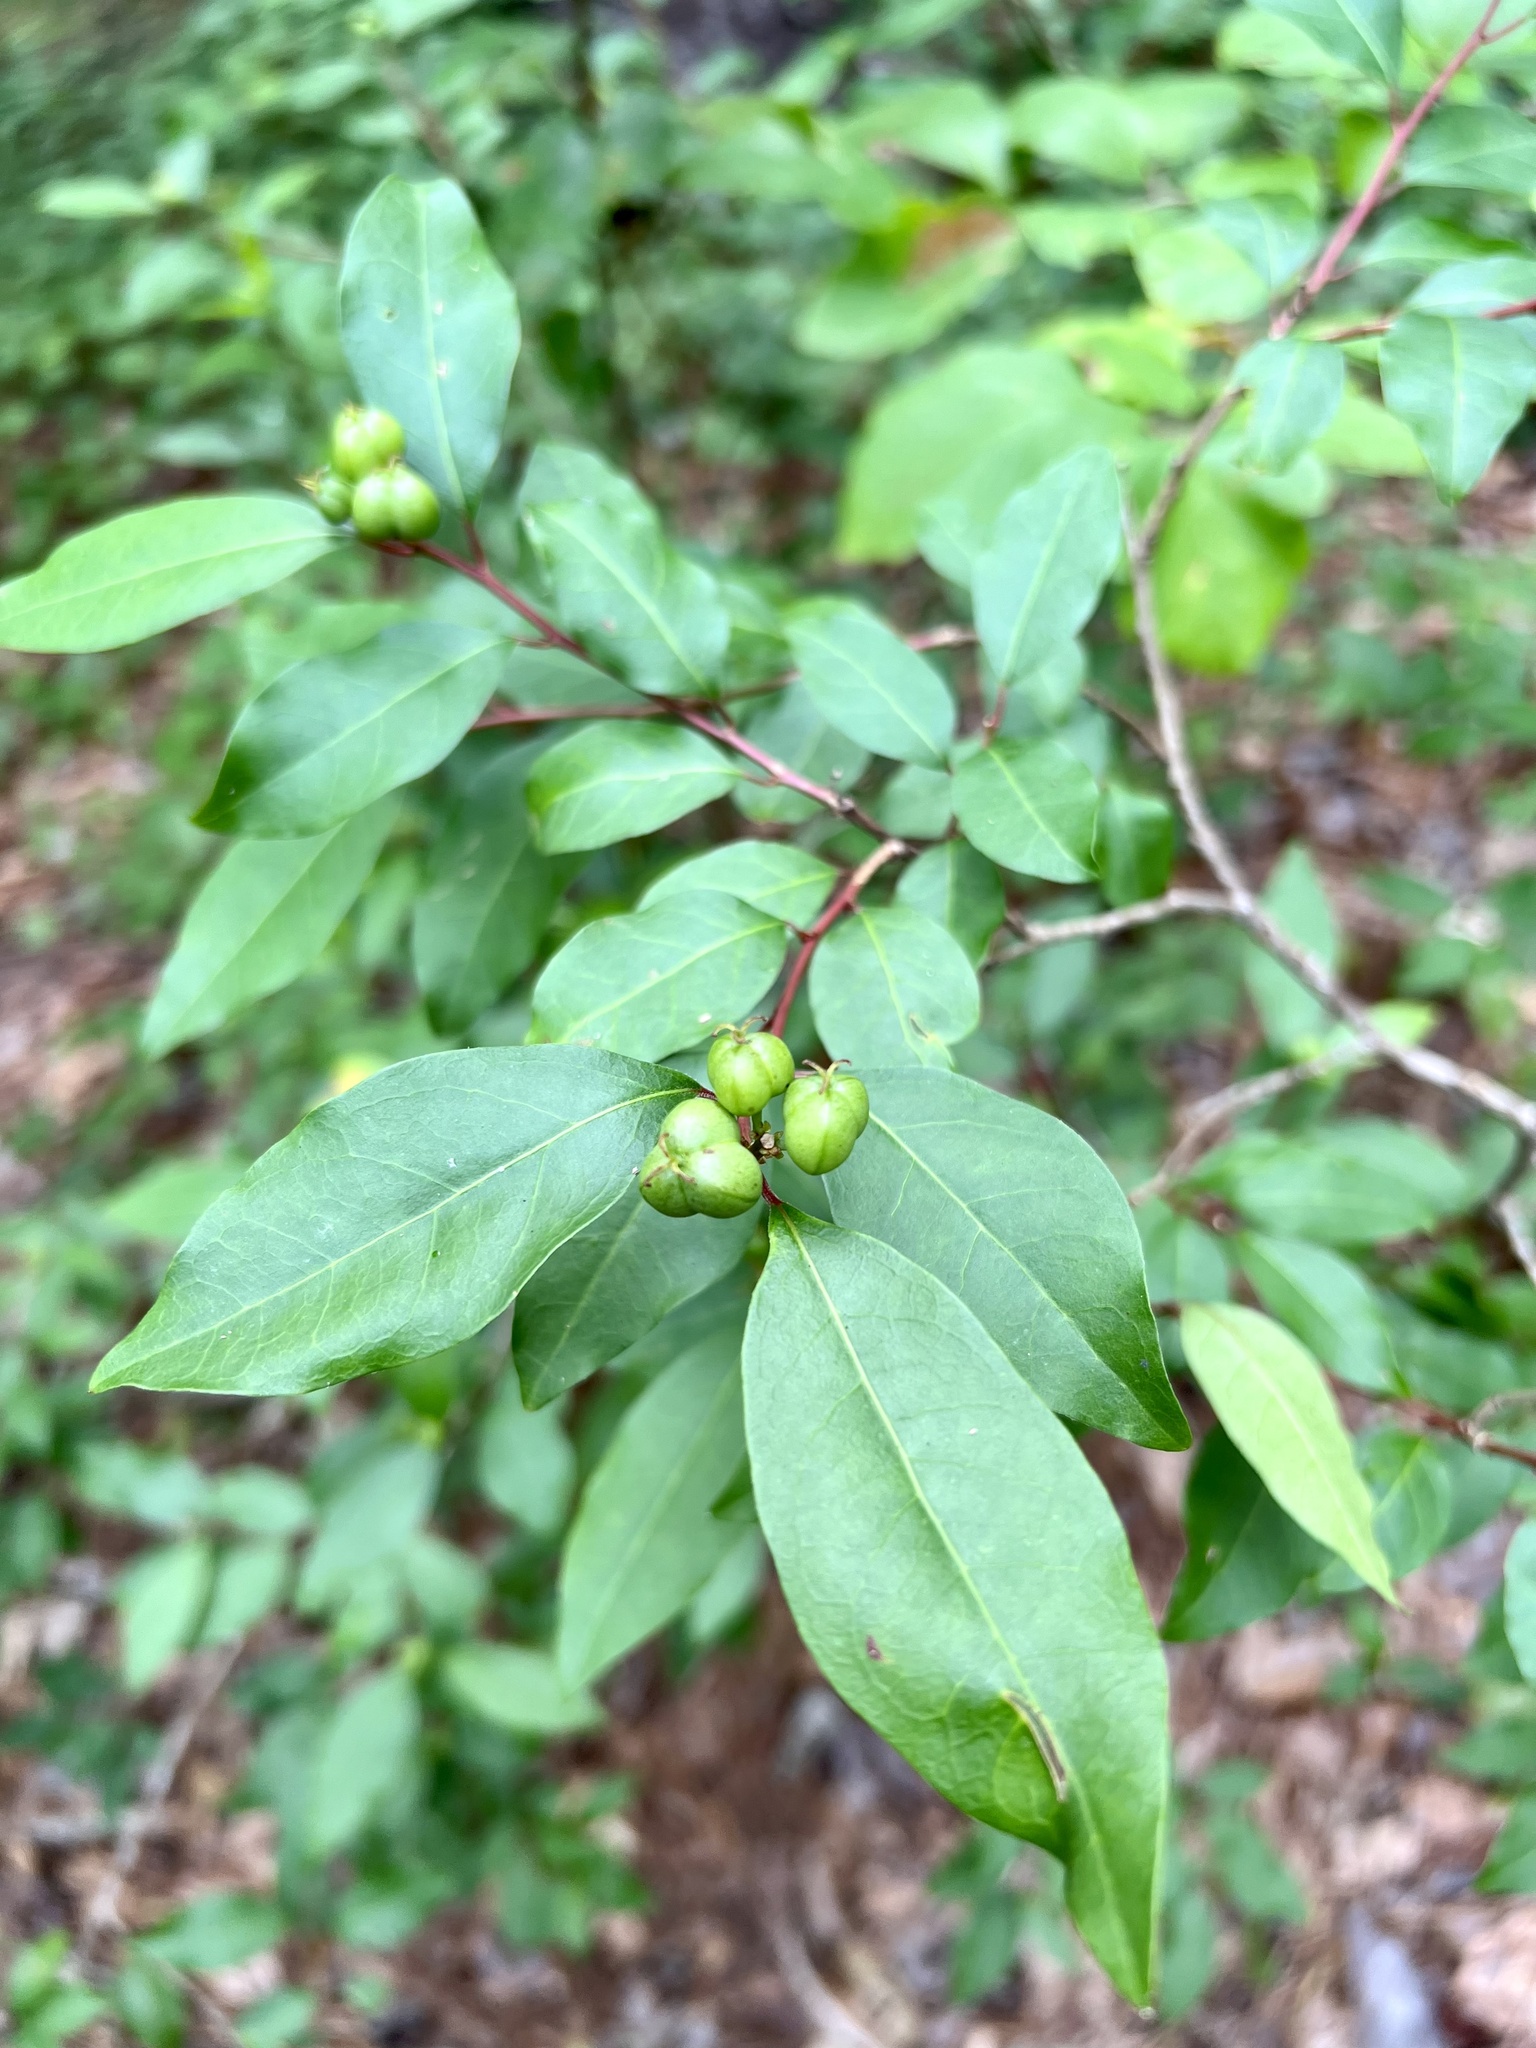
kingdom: Plantae
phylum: Tracheophyta
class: Magnoliopsida
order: Malpighiales
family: Euphorbiaceae
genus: Ditrysinia
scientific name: Ditrysinia fruticosa
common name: Gulf sebastian-bush
